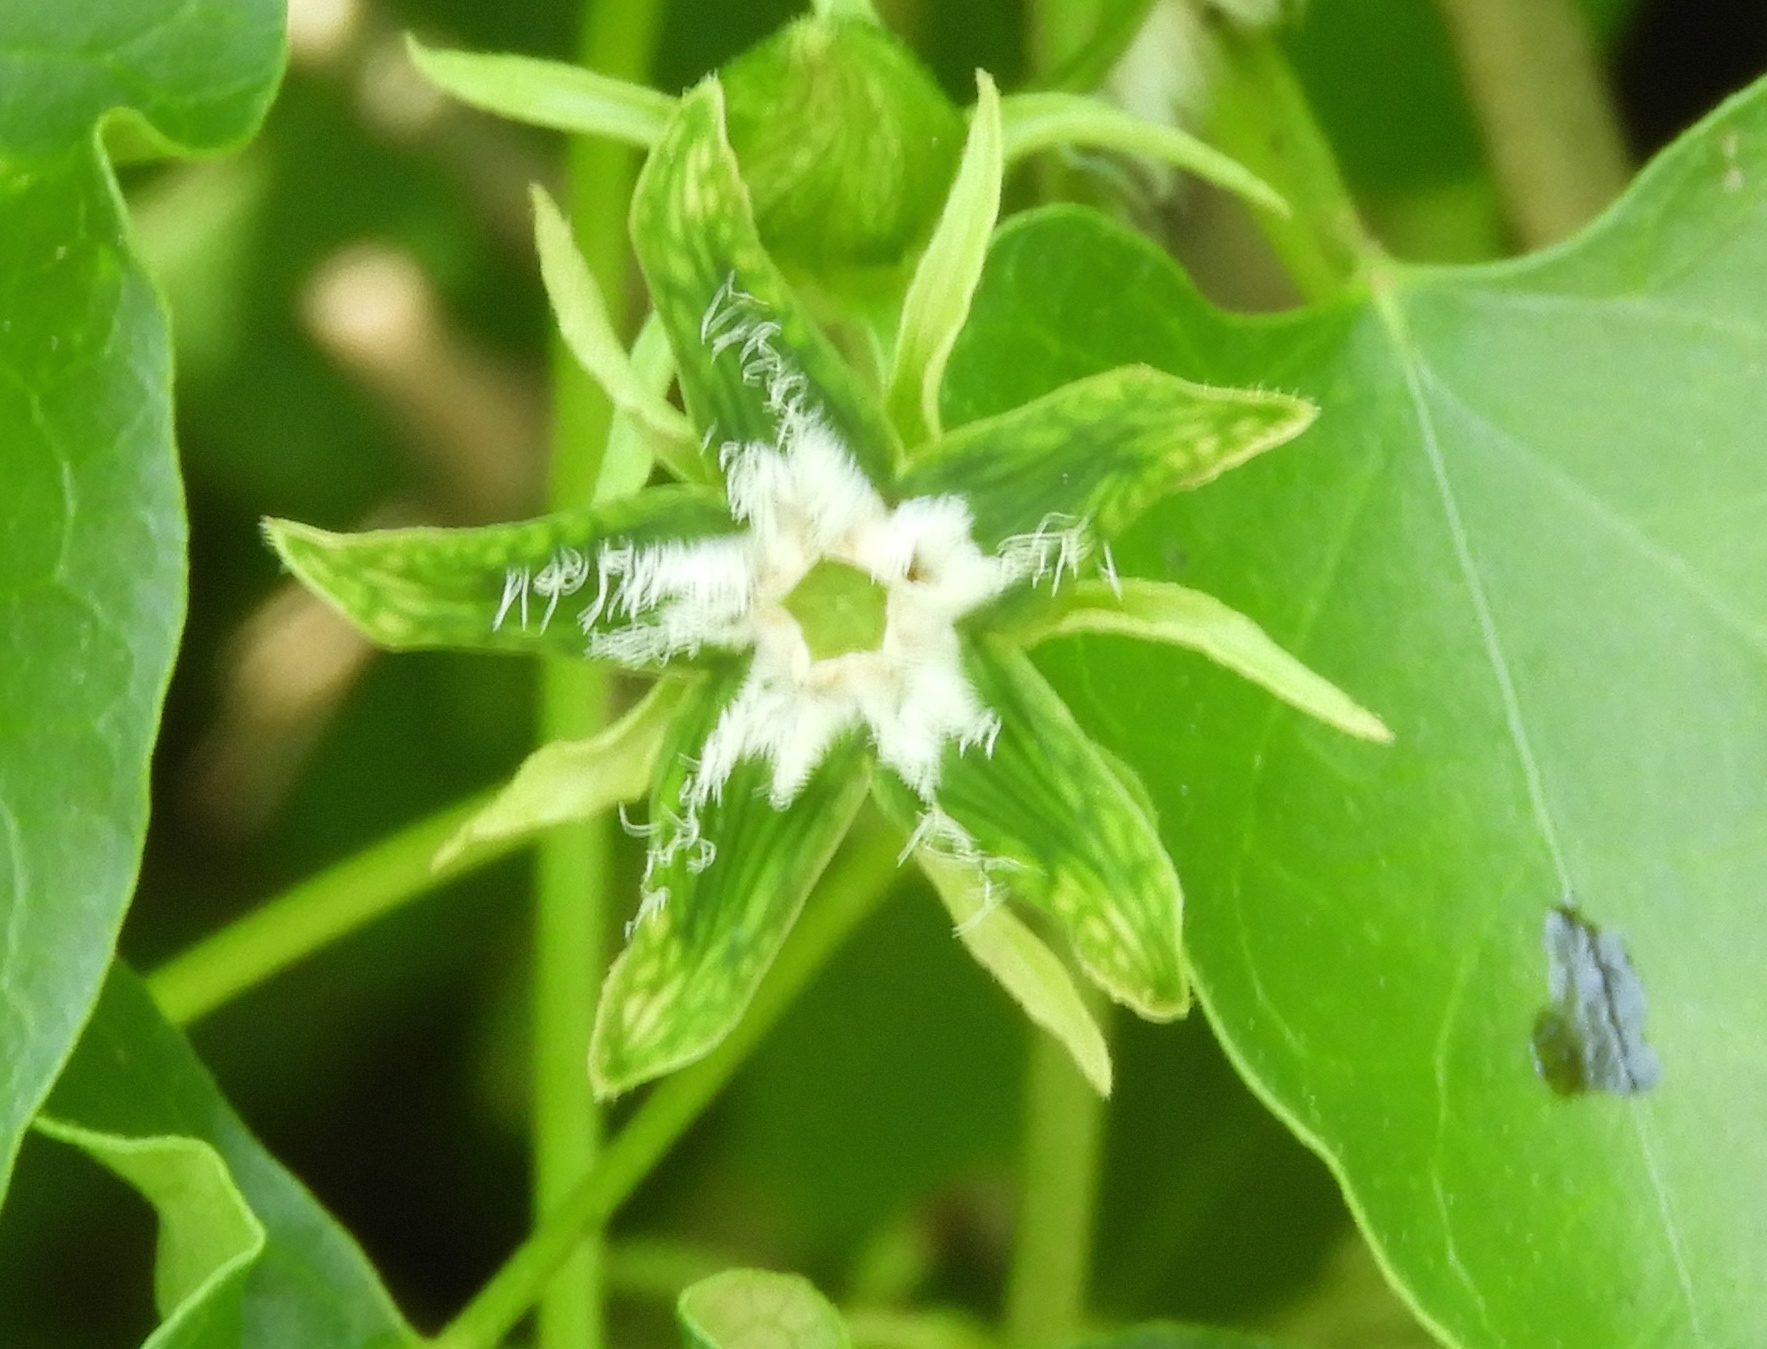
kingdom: Plantae
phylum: Tracheophyta
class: Magnoliopsida
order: Gentianales
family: Apocynaceae
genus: Gonolobus
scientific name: Gonolobus naturalistae
